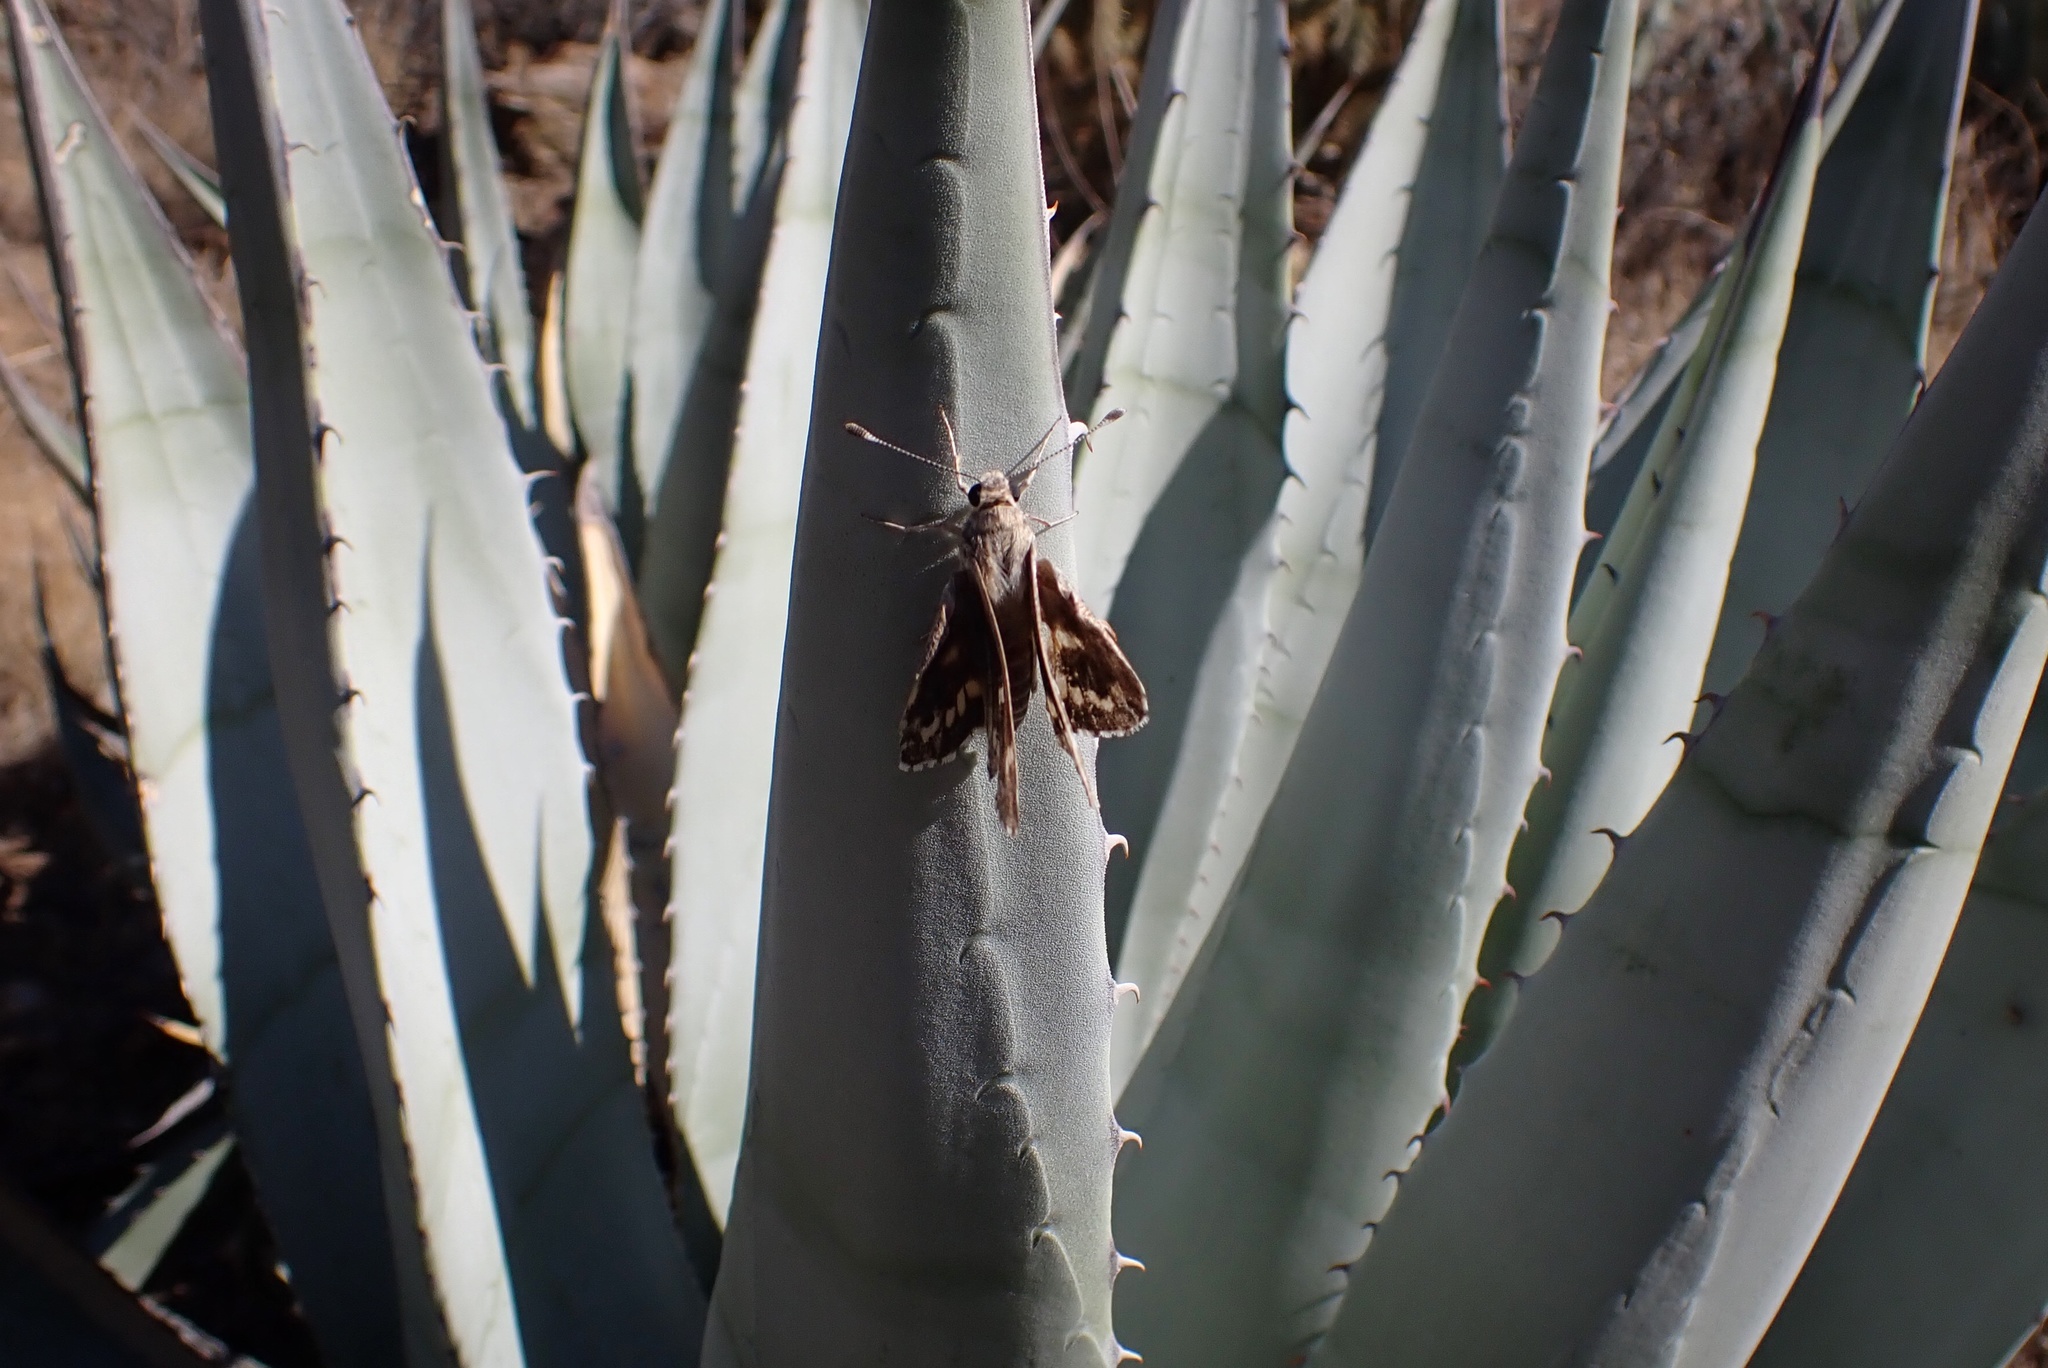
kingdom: Animalia
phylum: Arthropoda
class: Insecta
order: Lepidoptera
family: Hesperiidae
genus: Agathymus
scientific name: Agathymus stephensi
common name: California giant-skipper
